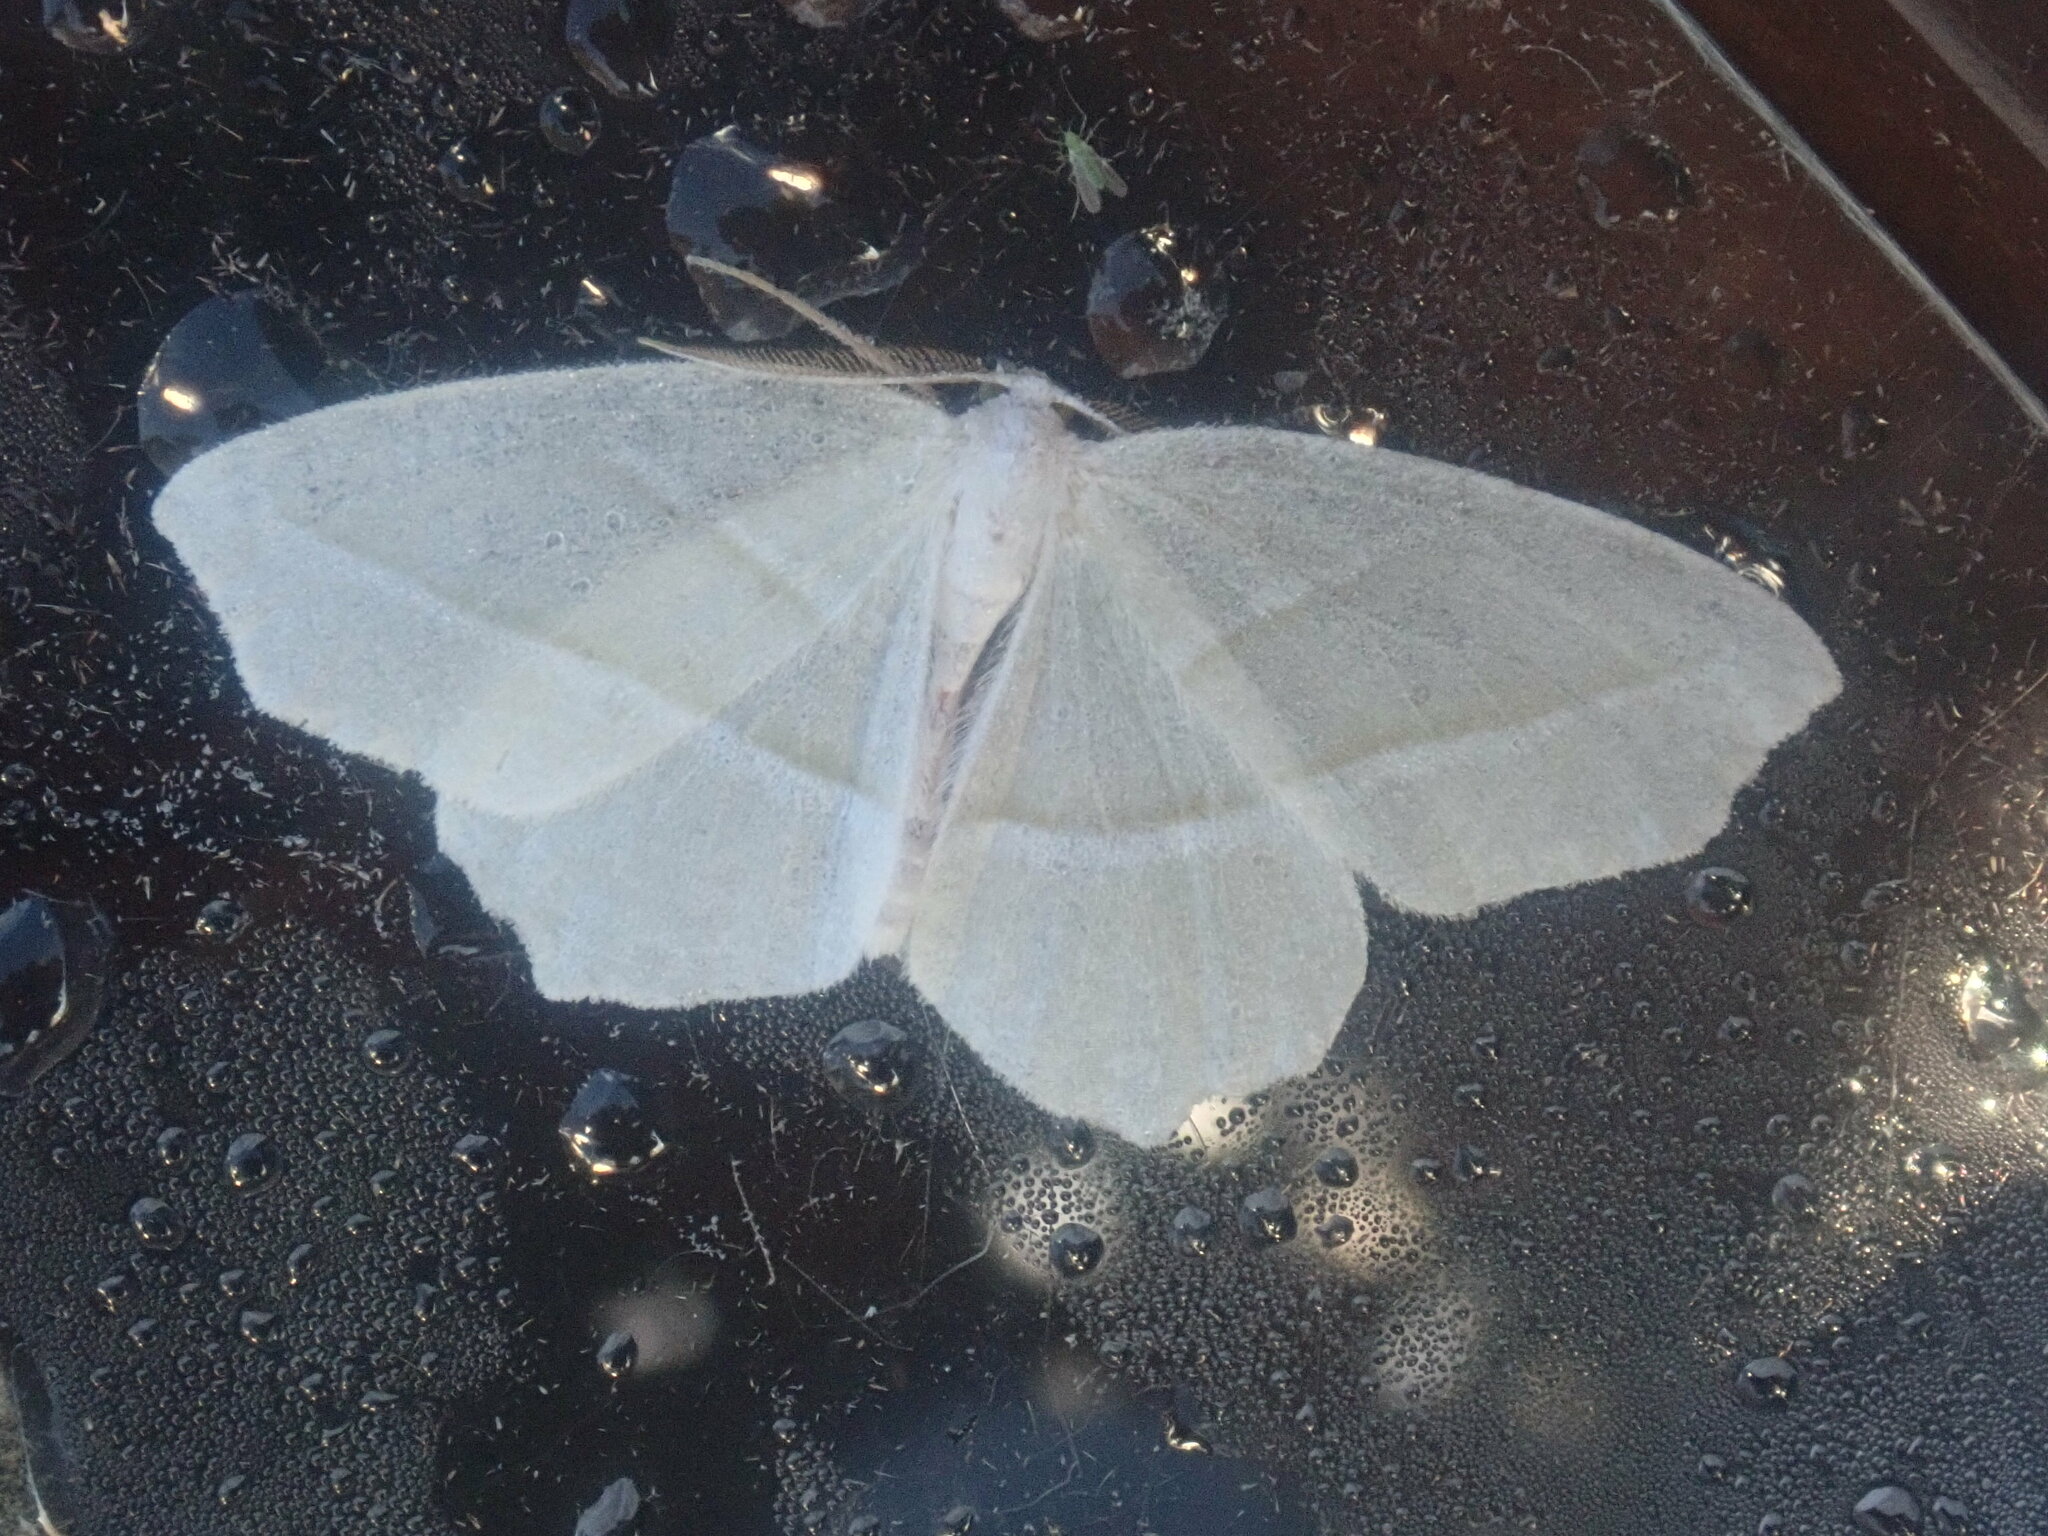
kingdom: Animalia
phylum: Arthropoda
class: Insecta
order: Lepidoptera
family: Geometridae
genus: Campaea
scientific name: Campaea perlata
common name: Fringed looper
